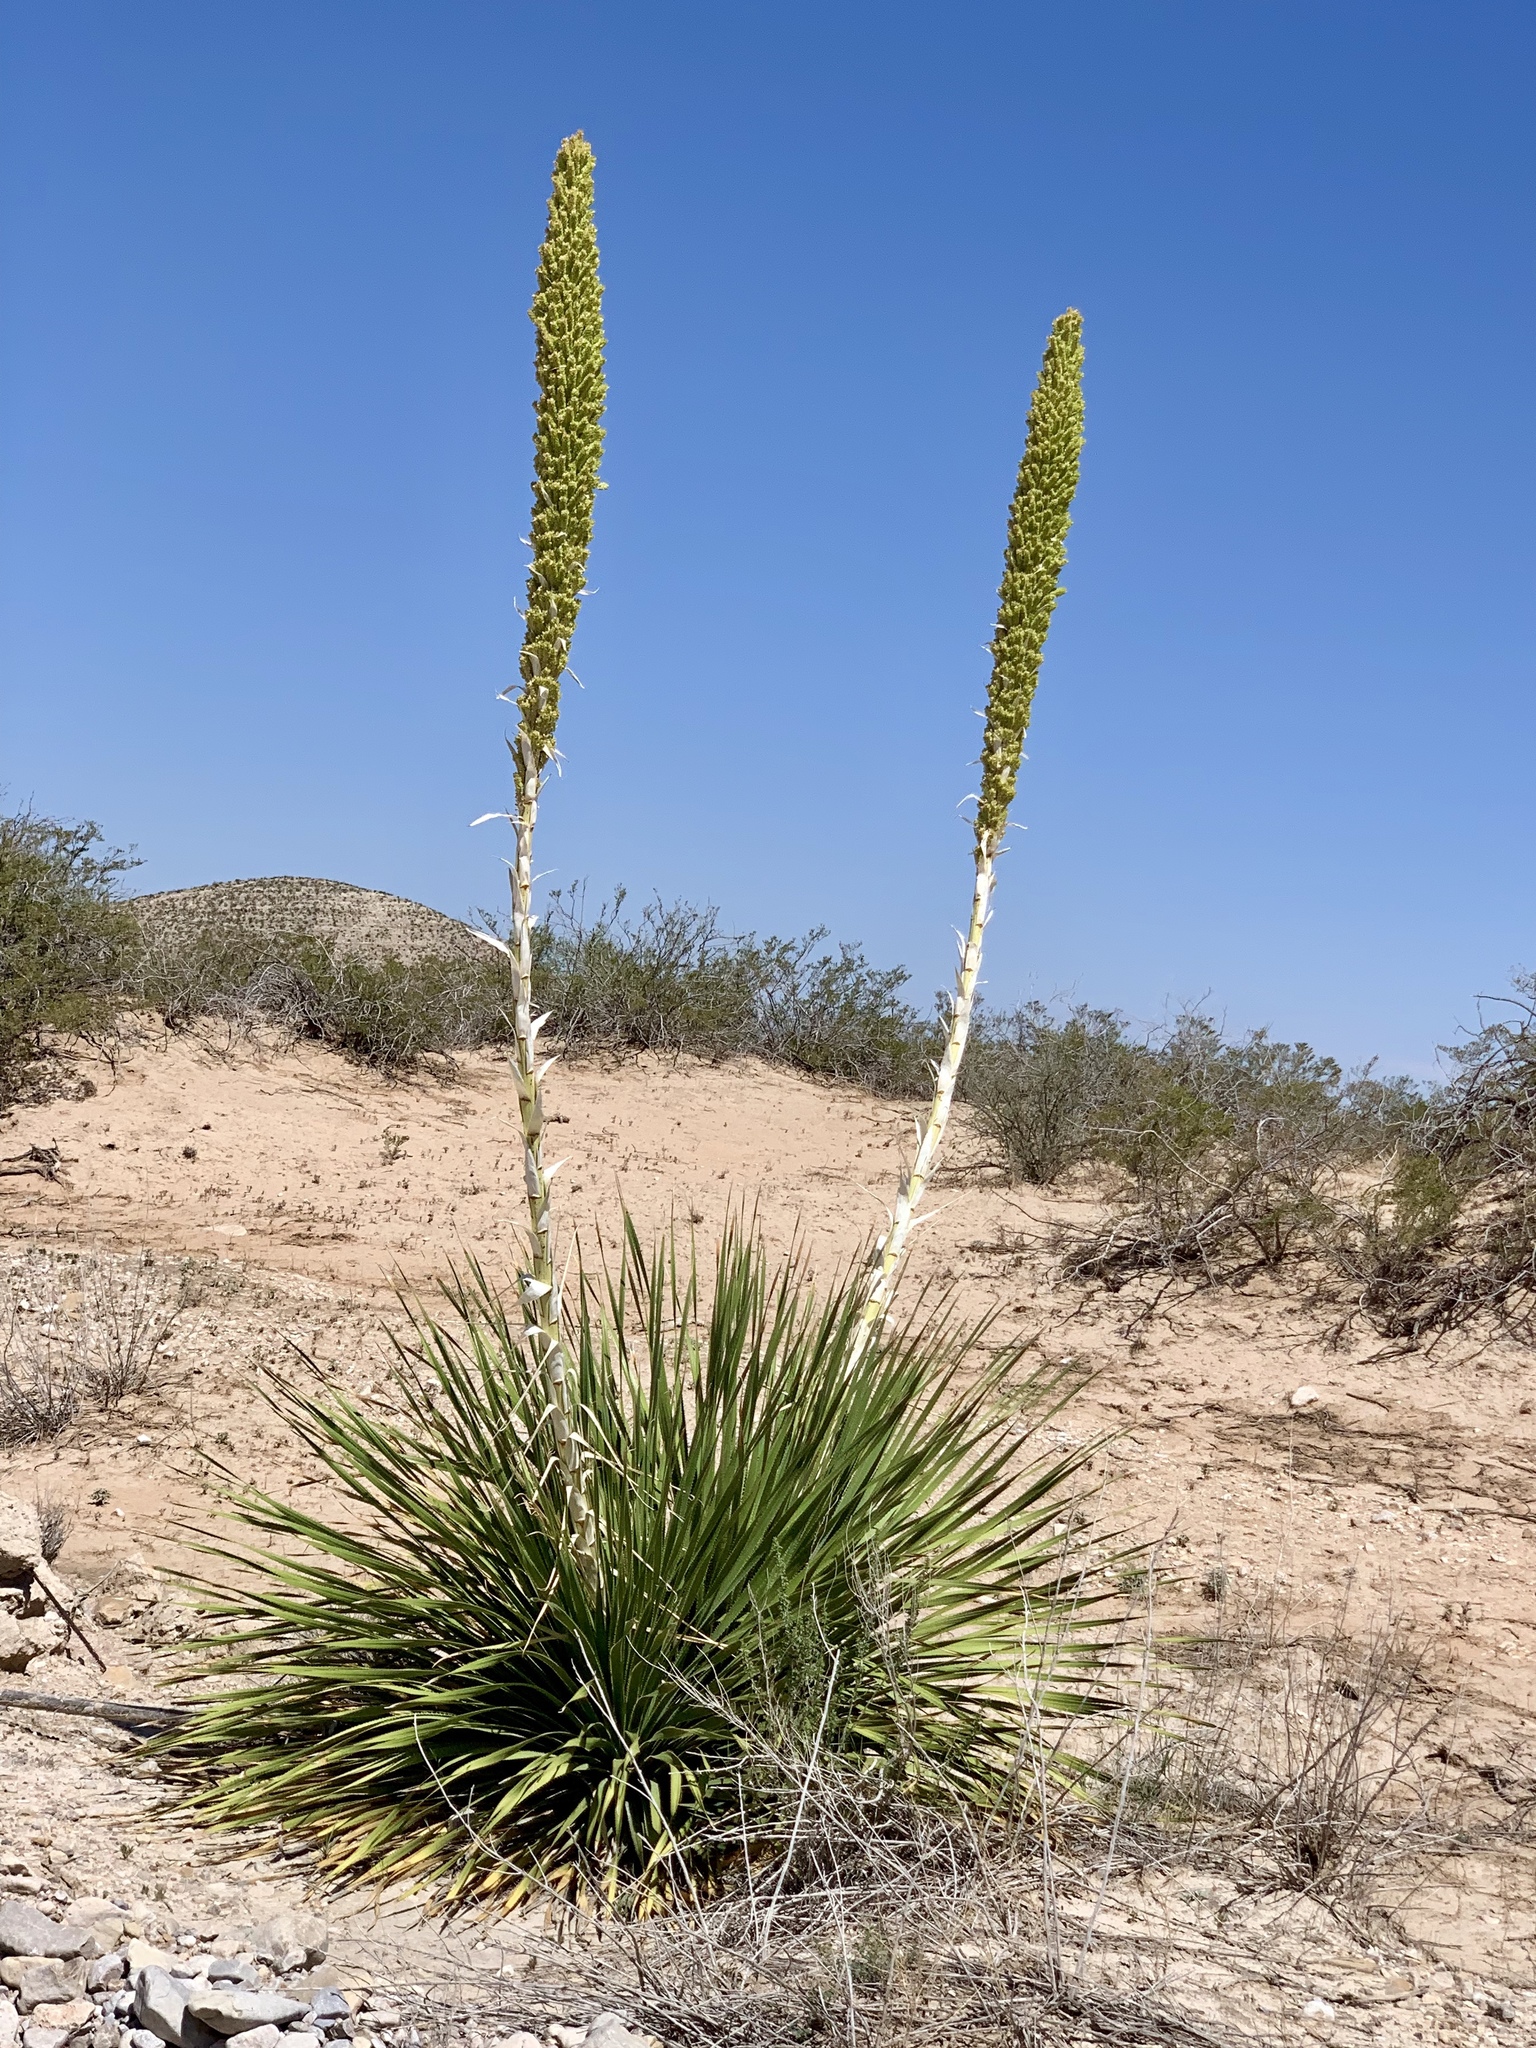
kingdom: Plantae
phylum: Tracheophyta
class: Liliopsida
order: Asparagales
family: Asparagaceae
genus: Dasylirion
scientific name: Dasylirion wheeleri
